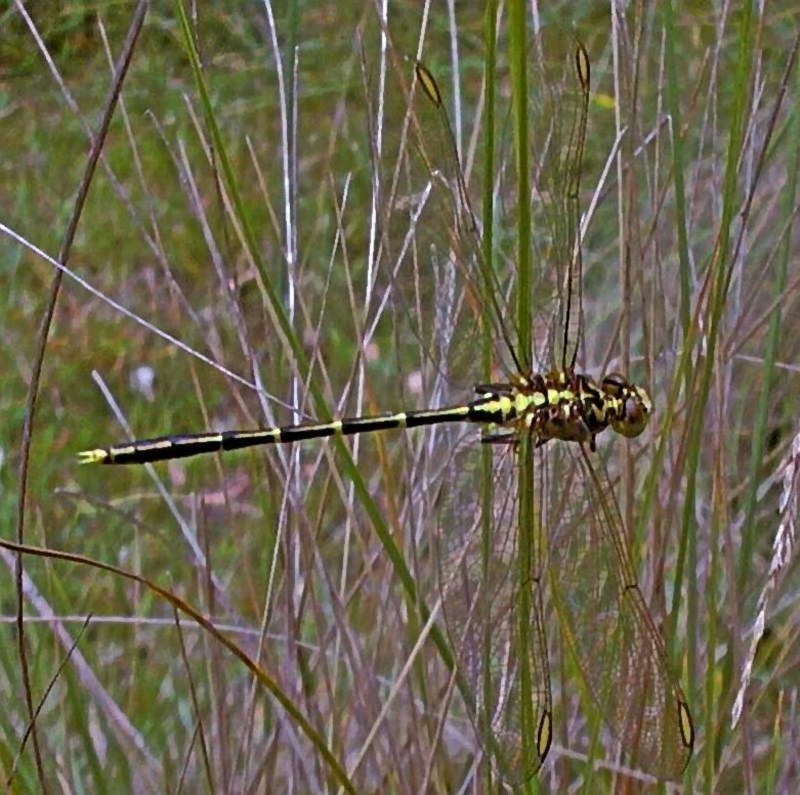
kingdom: Animalia
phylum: Arthropoda
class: Insecta
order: Odonata
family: Gomphidae
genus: Austrogomphus
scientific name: Austrogomphus guerini
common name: Yellow-striped hunter
